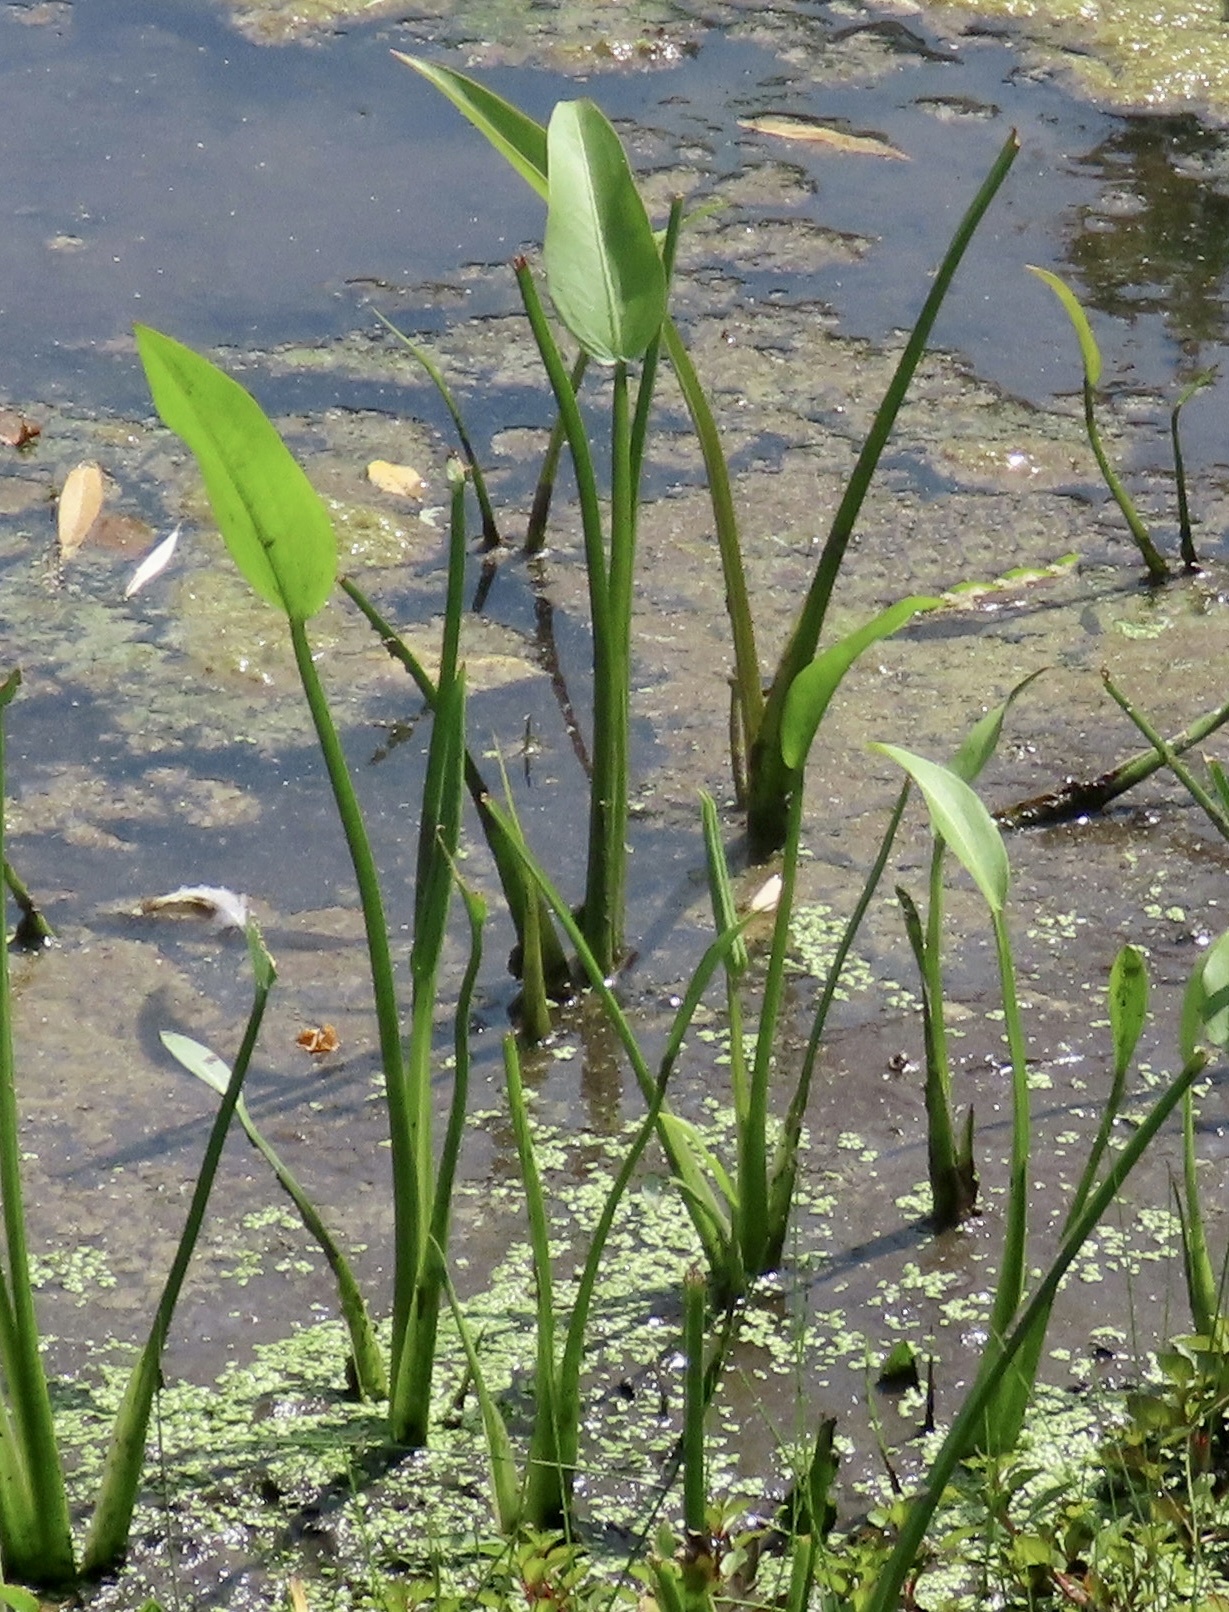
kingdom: Plantae
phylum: Tracheophyta
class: Liliopsida
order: Alismatales
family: Alismataceae
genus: Sagittaria
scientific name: Sagittaria platyphylla
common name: Broad-leaf arrowhead
